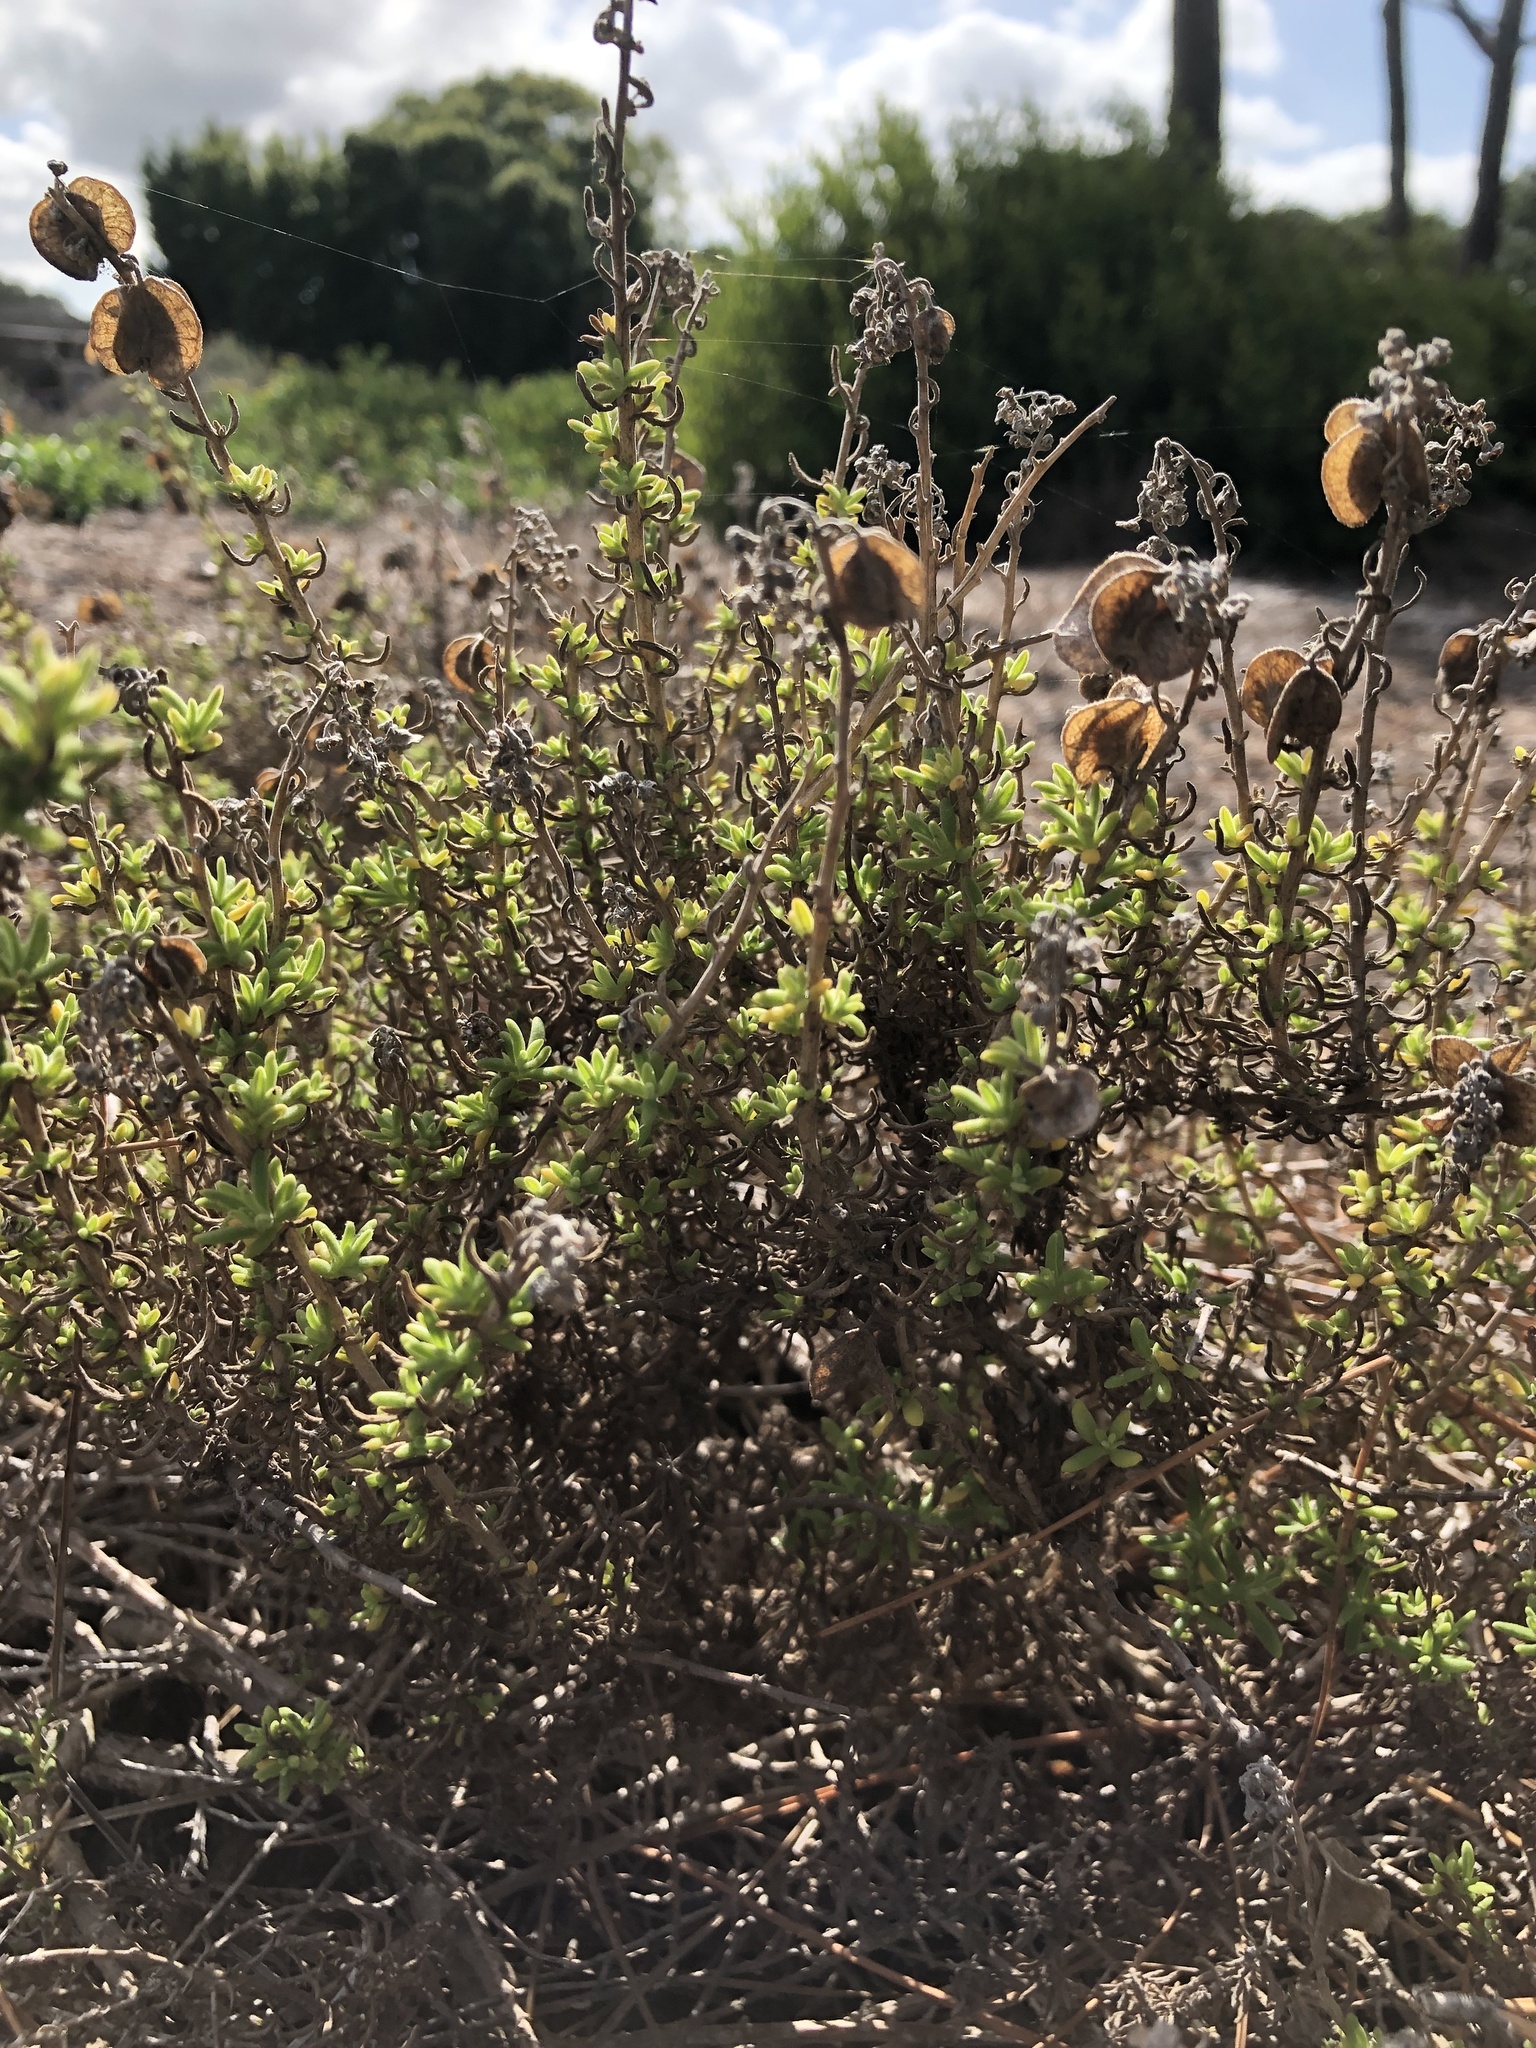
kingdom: Plantae
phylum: Tracheophyta
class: Magnoliopsida
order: Caryophyllales
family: Aizoaceae
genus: Tetragonia
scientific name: Tetragonia fruticosa
